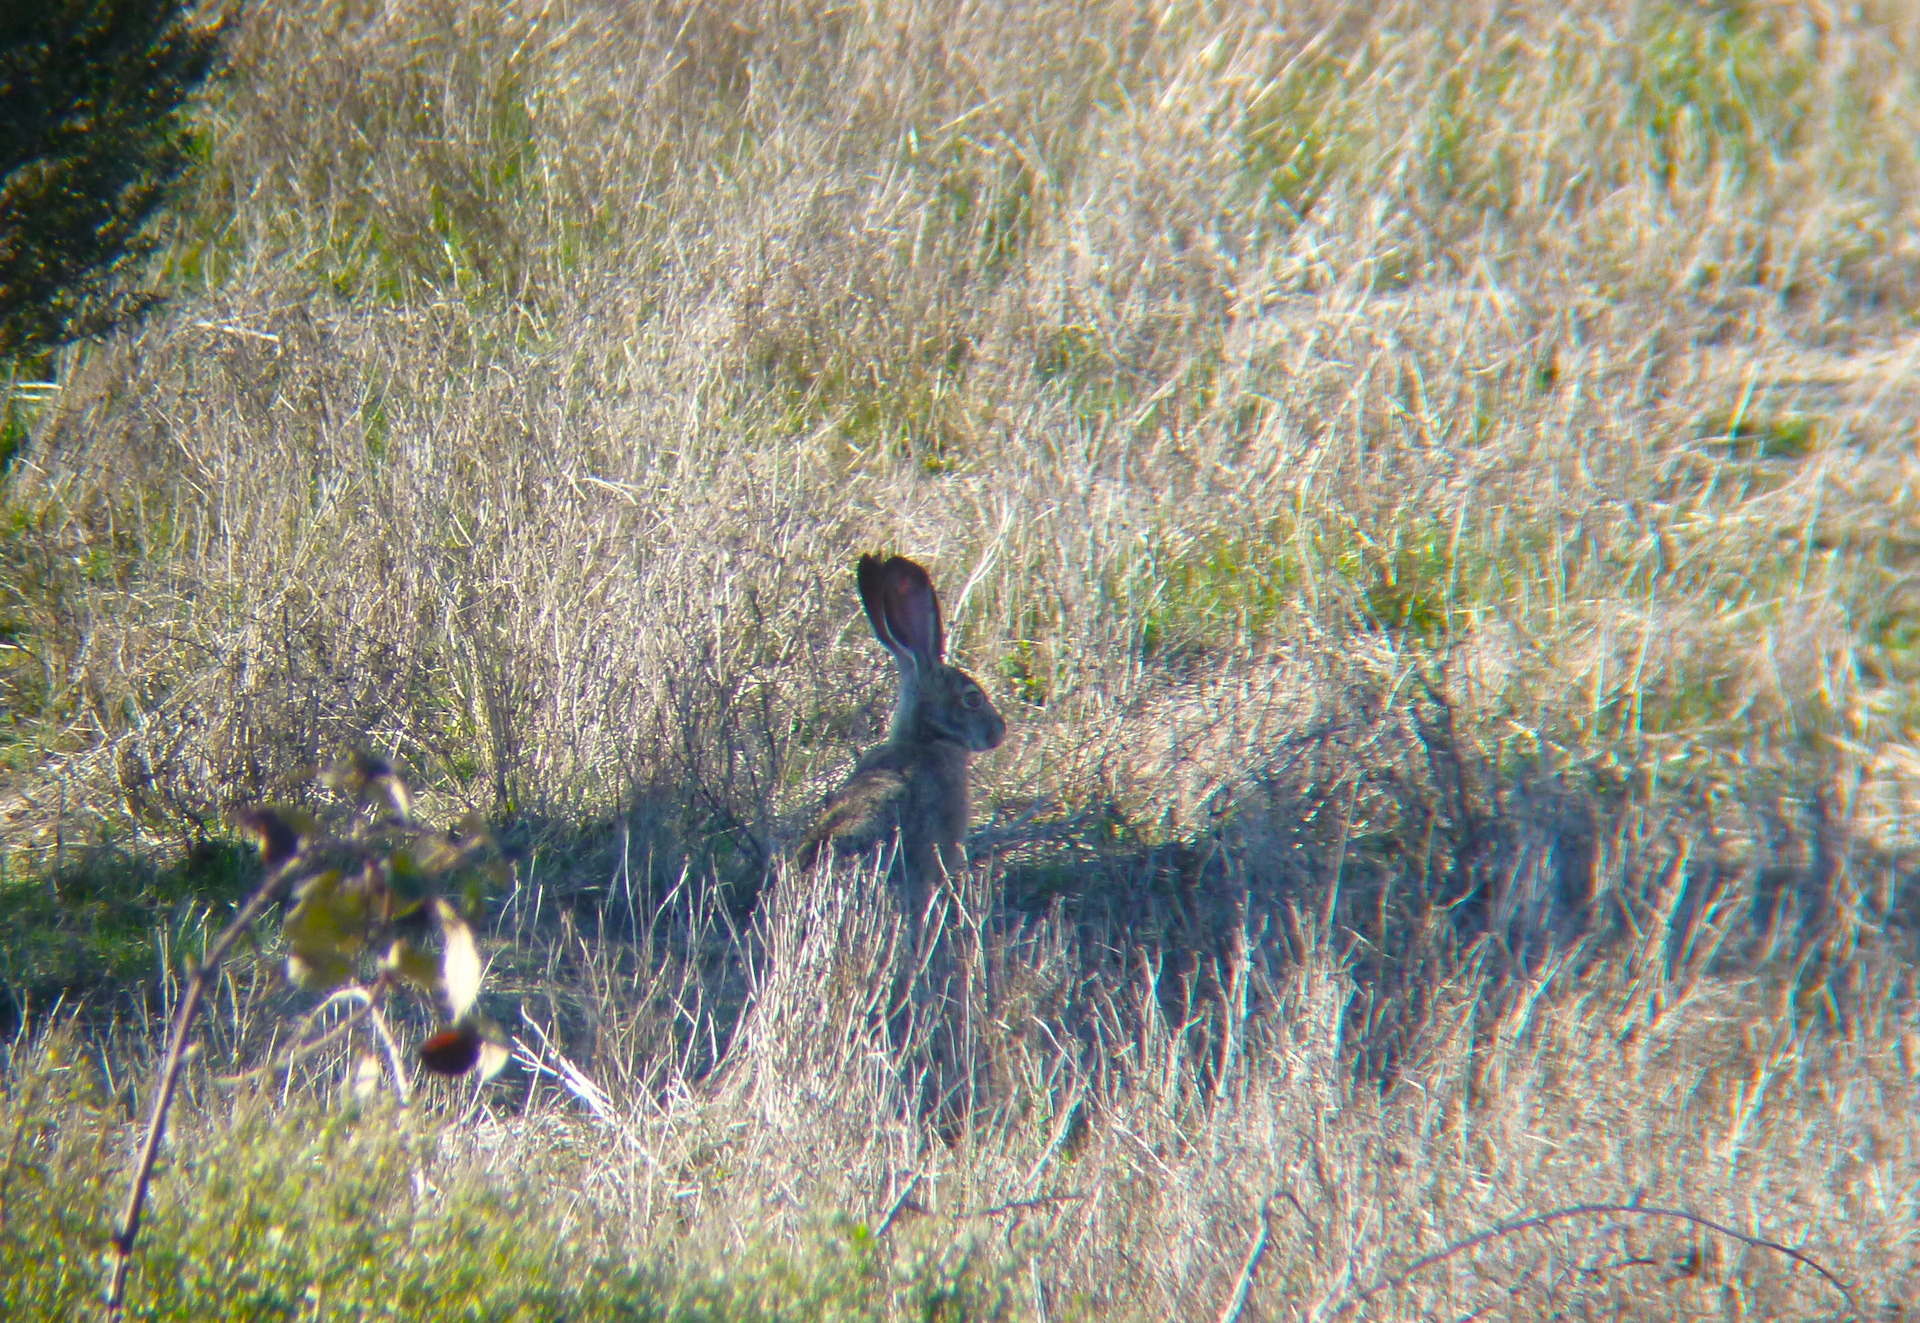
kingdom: Animalia
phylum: Chordata
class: Mammalia
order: Lagomorpha
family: Leporidae
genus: Lepus
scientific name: Lepus californicus
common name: Black-tailed jackrabbit
